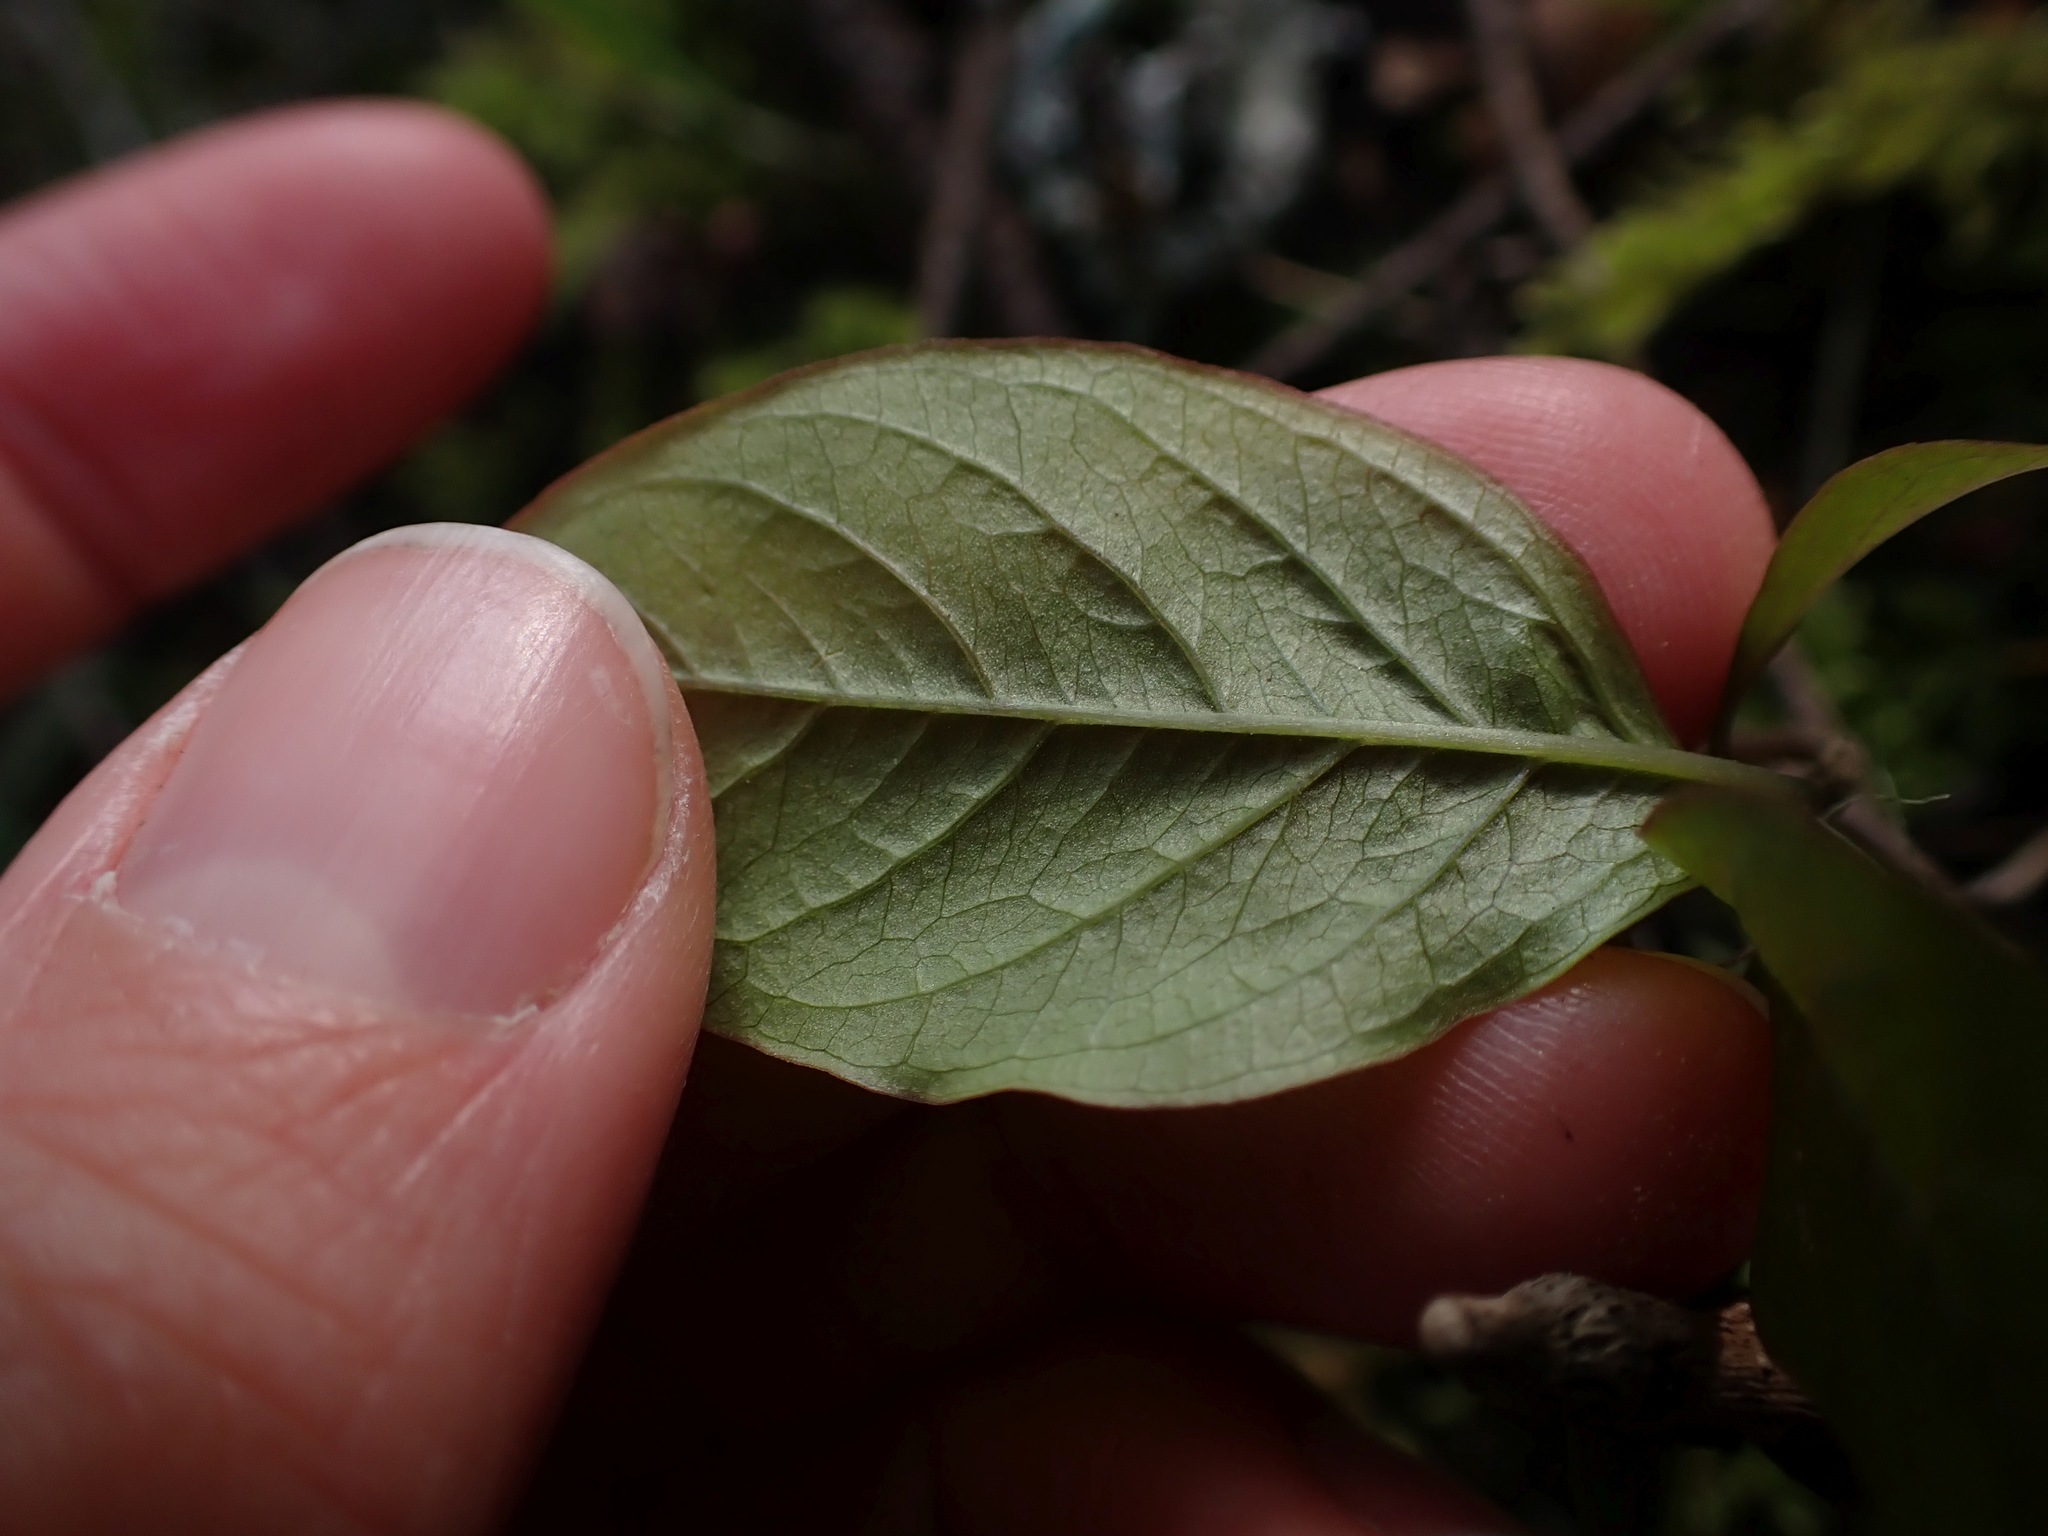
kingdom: Plantae
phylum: Tracheophyta
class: Magnoliopsida
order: Ericales
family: Primulaceae
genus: Lysimachia
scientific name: Lysimachia latifolia
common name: Pacific starflower
